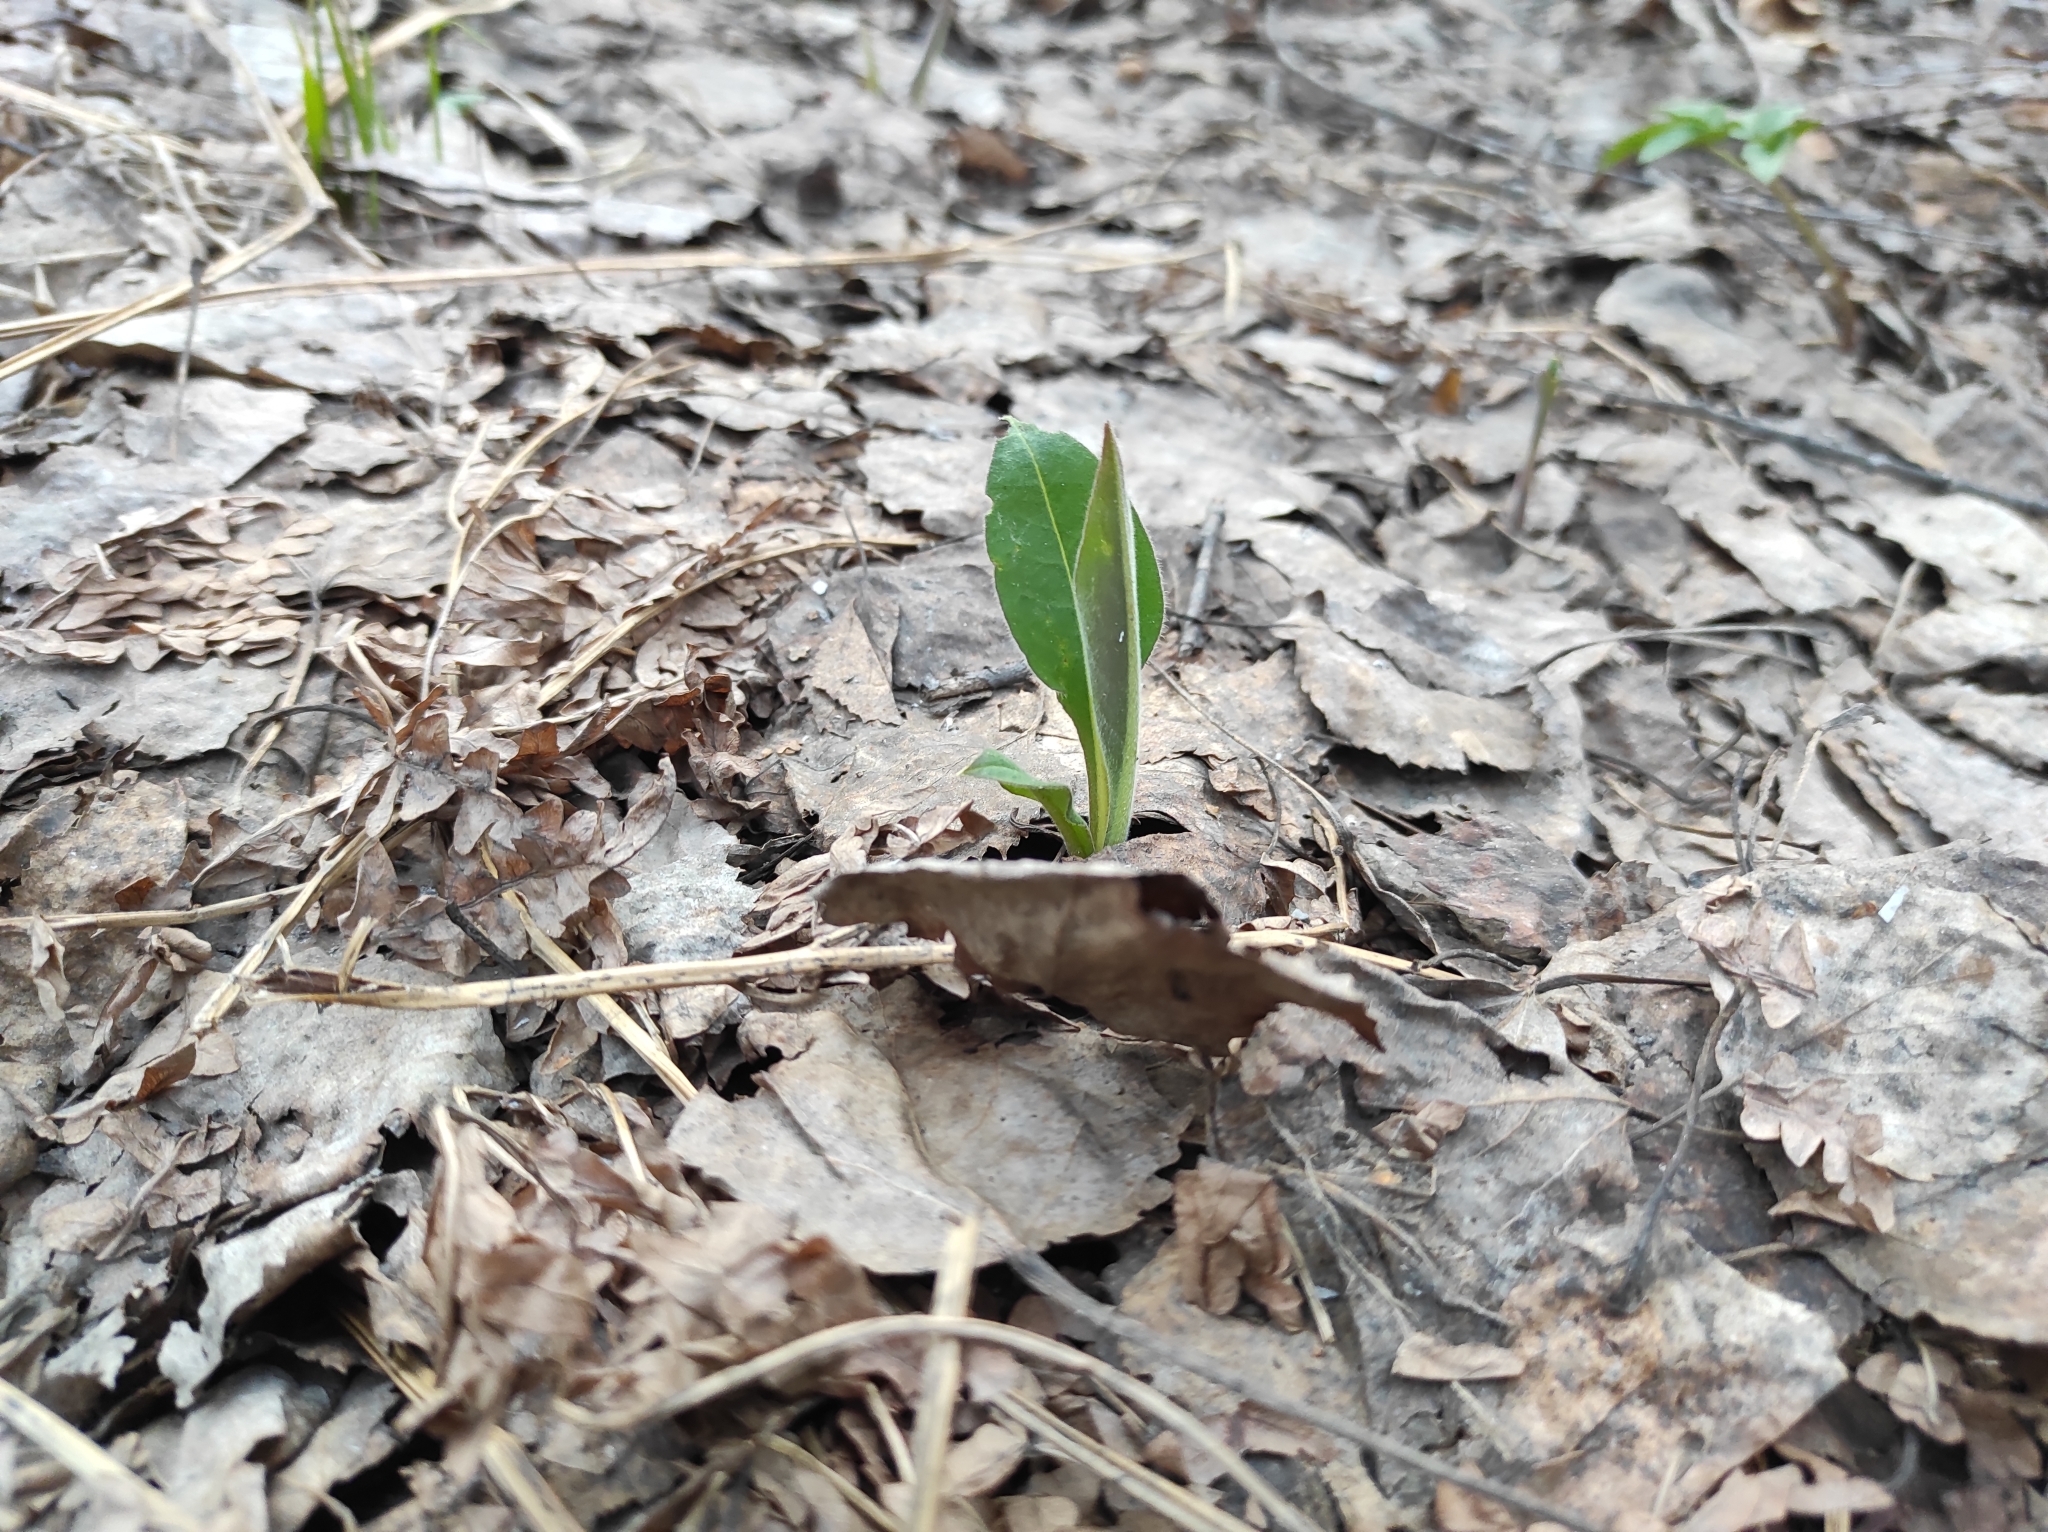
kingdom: Plantae
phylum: Tracheophyta
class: Magnoliopsida
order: Boraginales
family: Boraginaceae
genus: Pulmonaria
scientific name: Pulmonaria mollis
